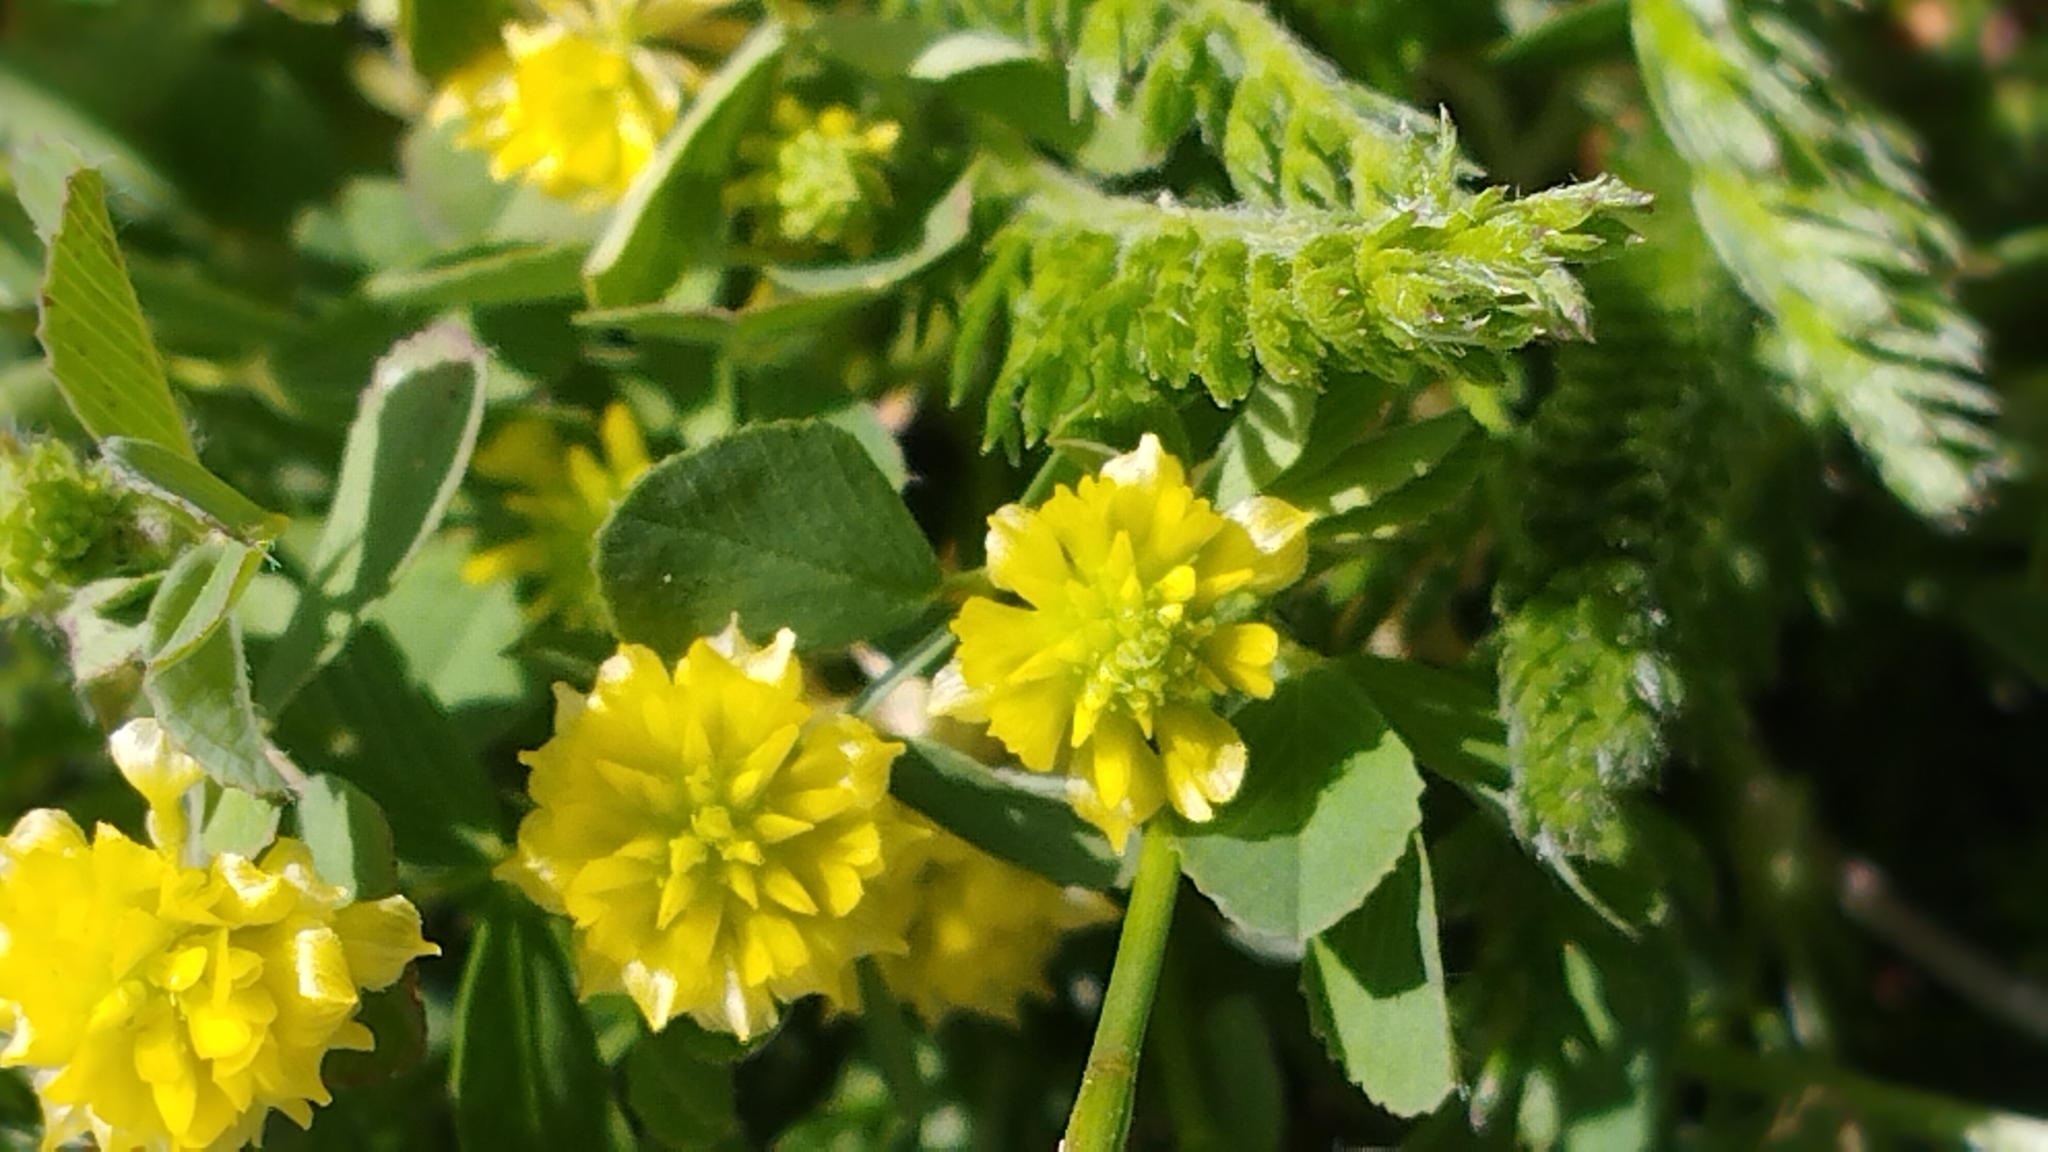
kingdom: Plantae
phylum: Tracheophyta
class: Magnoliopsida
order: Fabales
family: Fabaceae
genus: Trifolium
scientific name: Trifolium dubium
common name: Suckling clover
